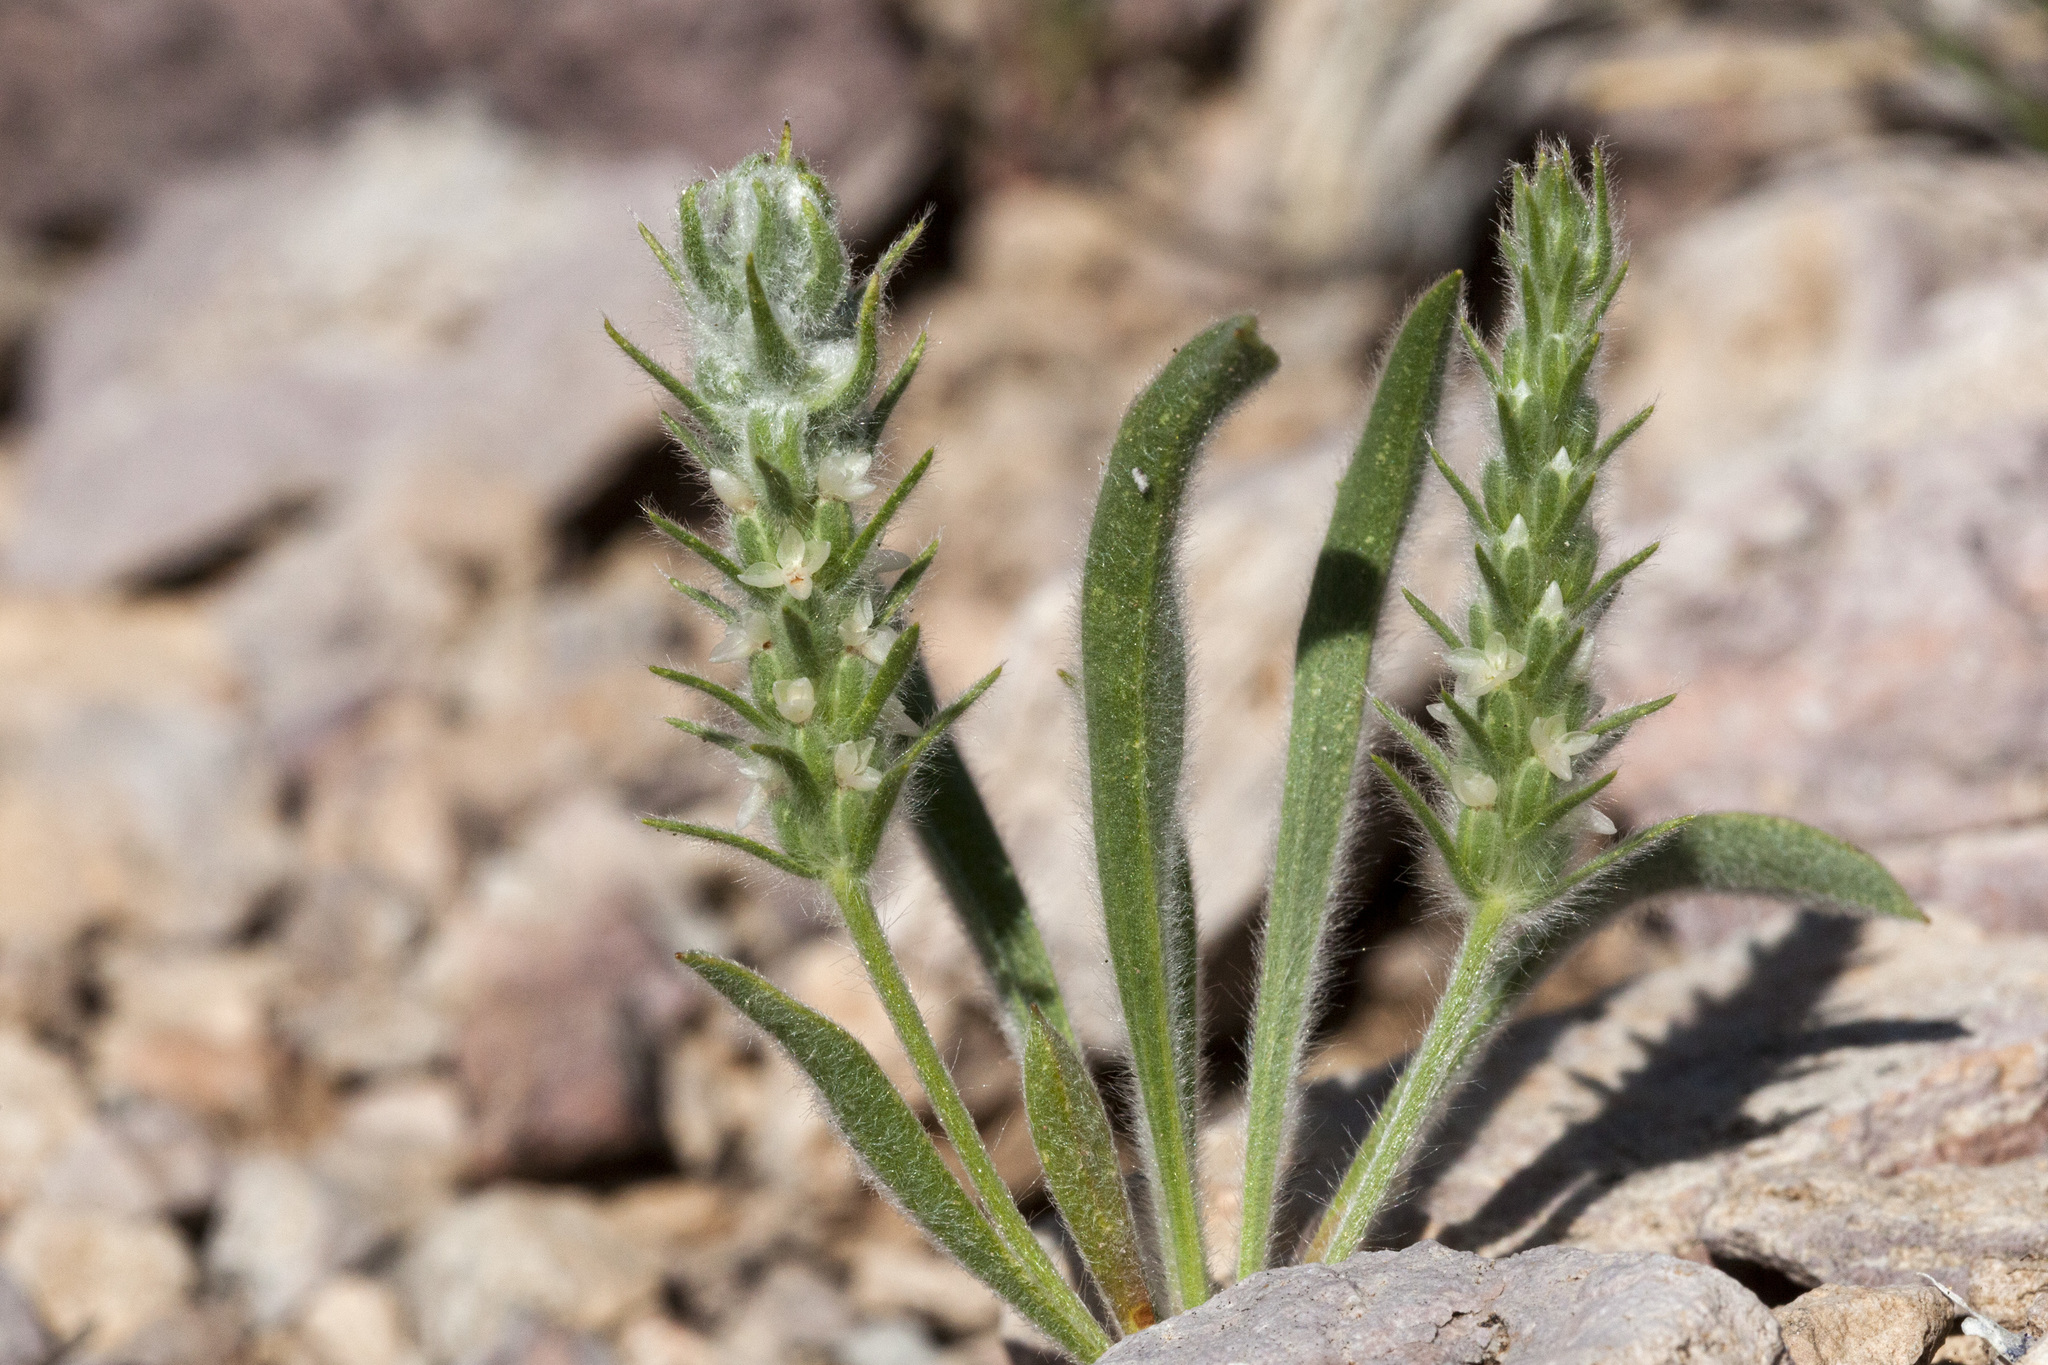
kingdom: Plantae
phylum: Tracheophyta
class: Magnoliopsida
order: Lamiales
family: Plantaginaceae
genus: Plantago
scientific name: Plantago patagonica
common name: Patagonia indian-wheat
